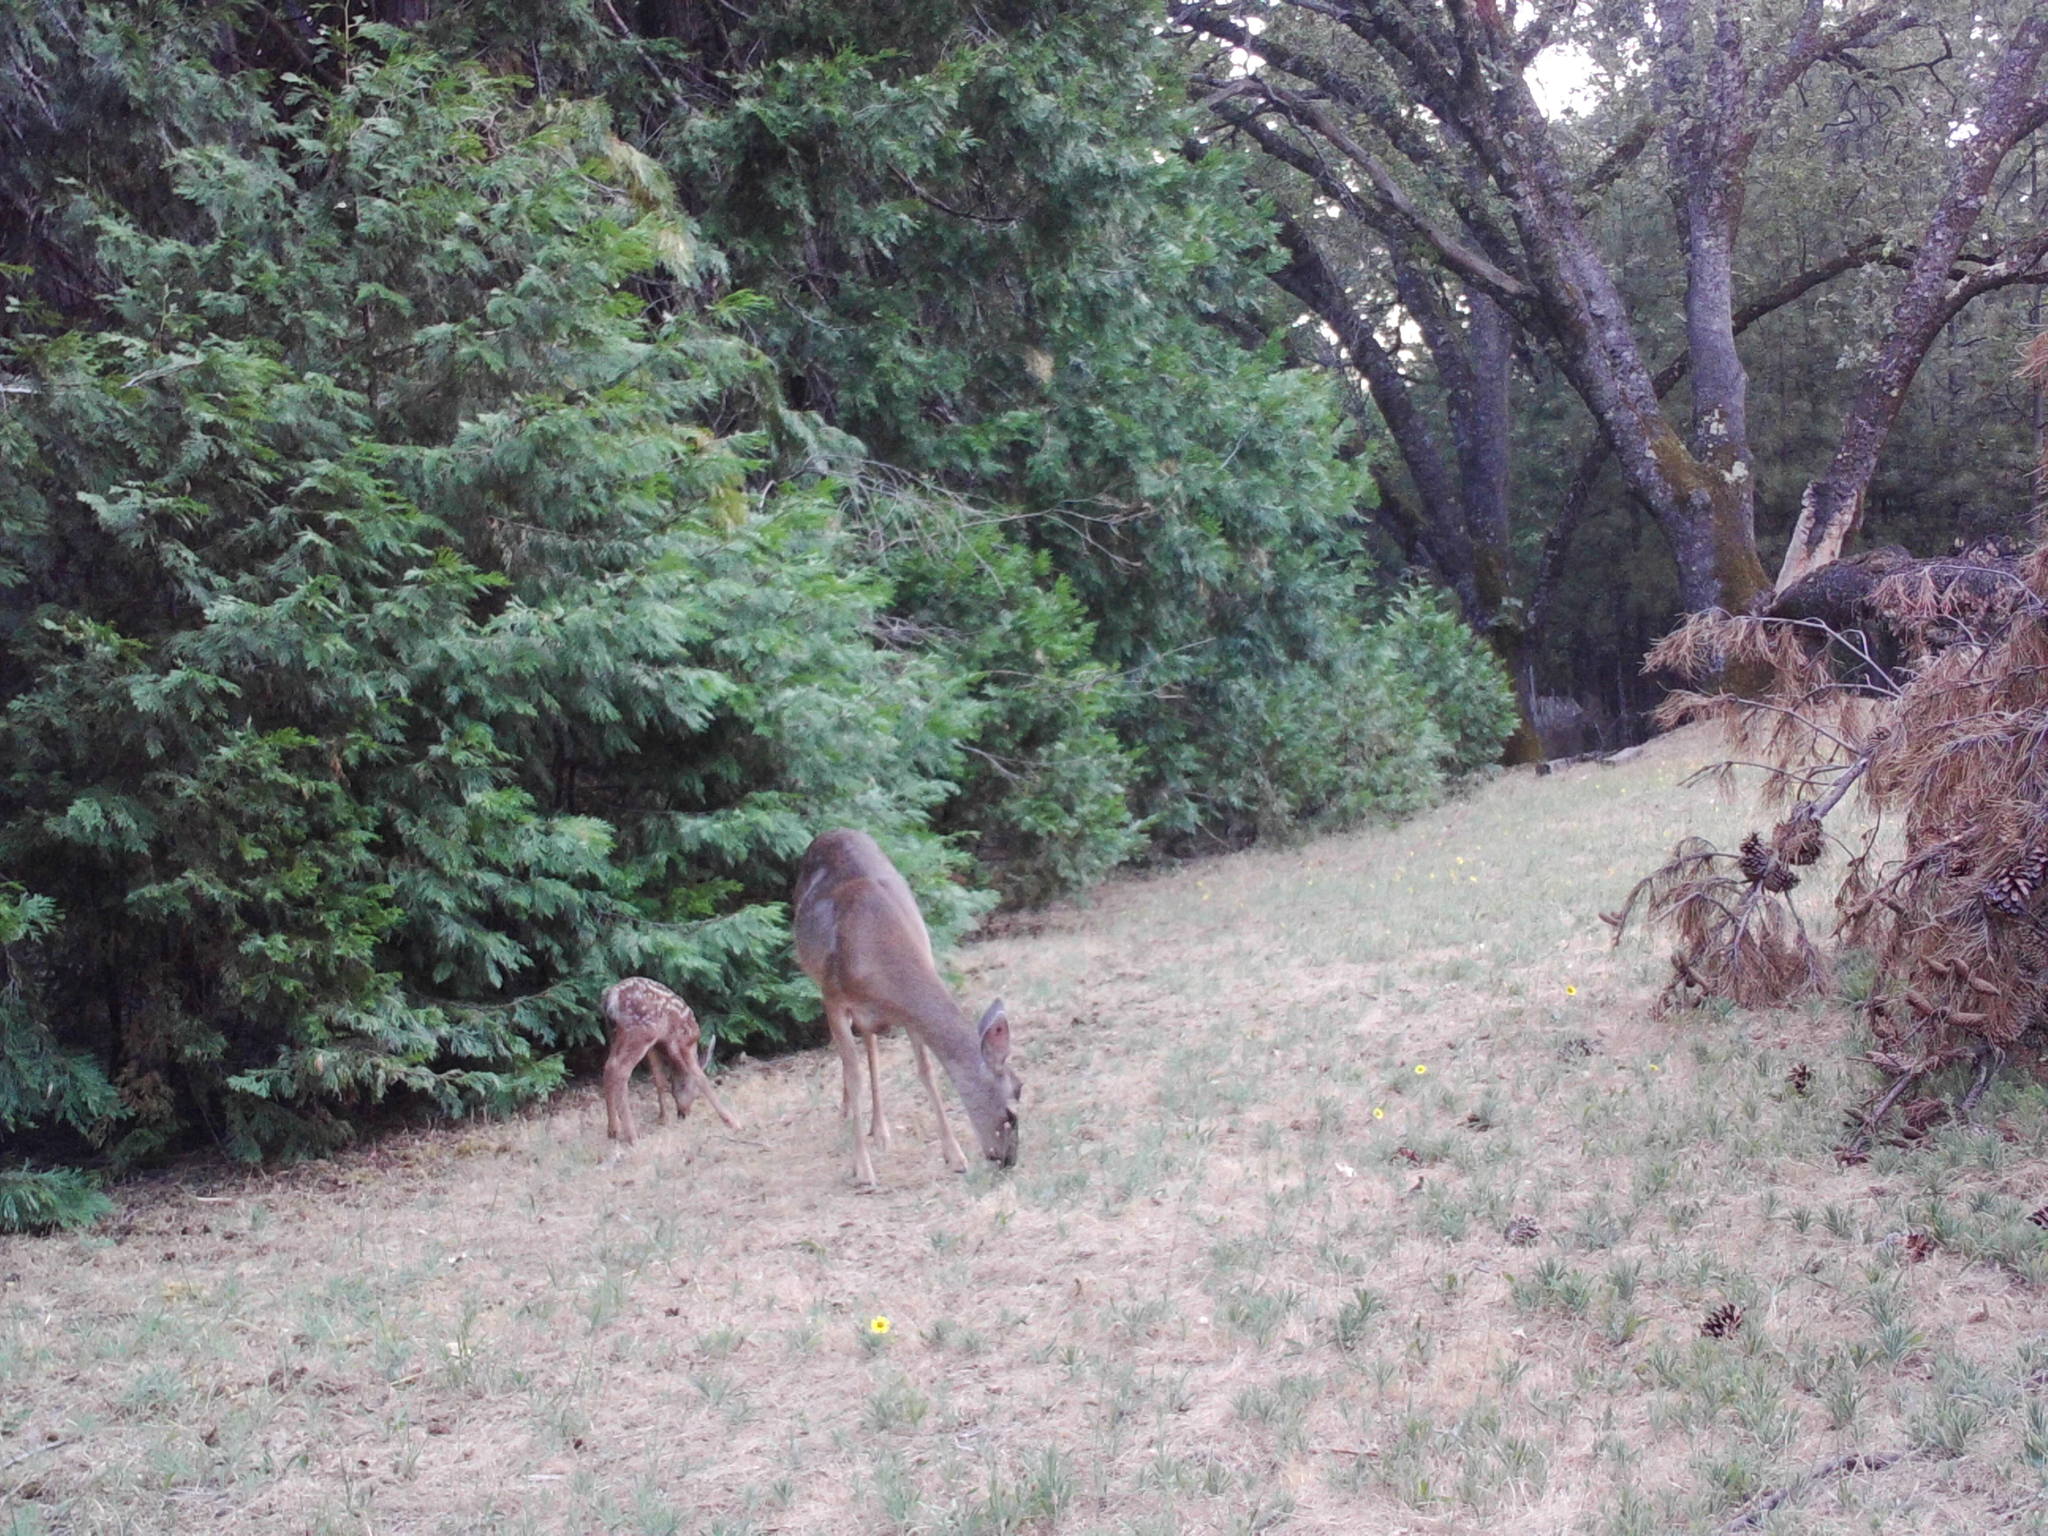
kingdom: Animalia
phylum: Chordata
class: Mammalia
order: Artiodactyla
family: Cervidae
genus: Odocoileus
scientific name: Odocoileus hemionus
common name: Mule deer
